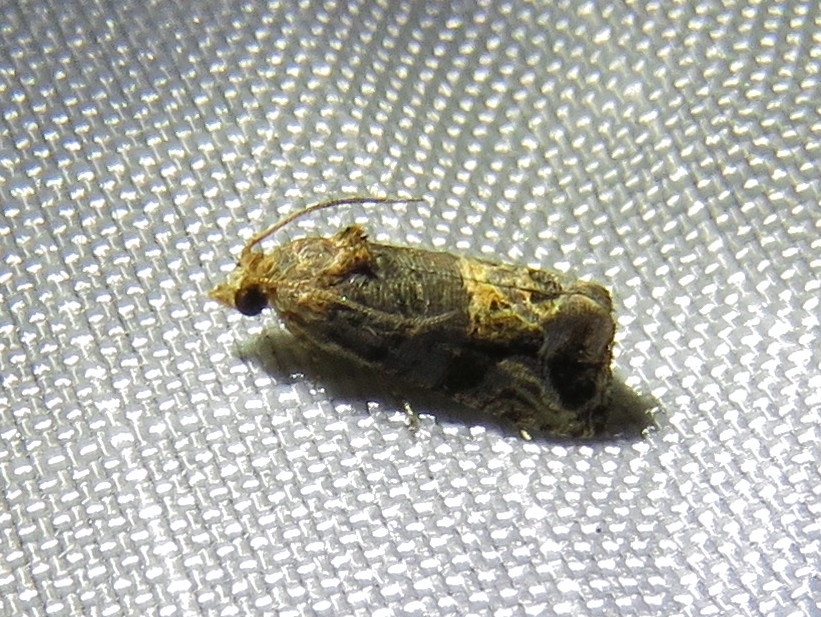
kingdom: Animalia
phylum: Arthropoda
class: Insecta
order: Lepidoptera
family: Tortricidae
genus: Paralobesia
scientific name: Paralobesia viteana
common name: Grape berry moth
